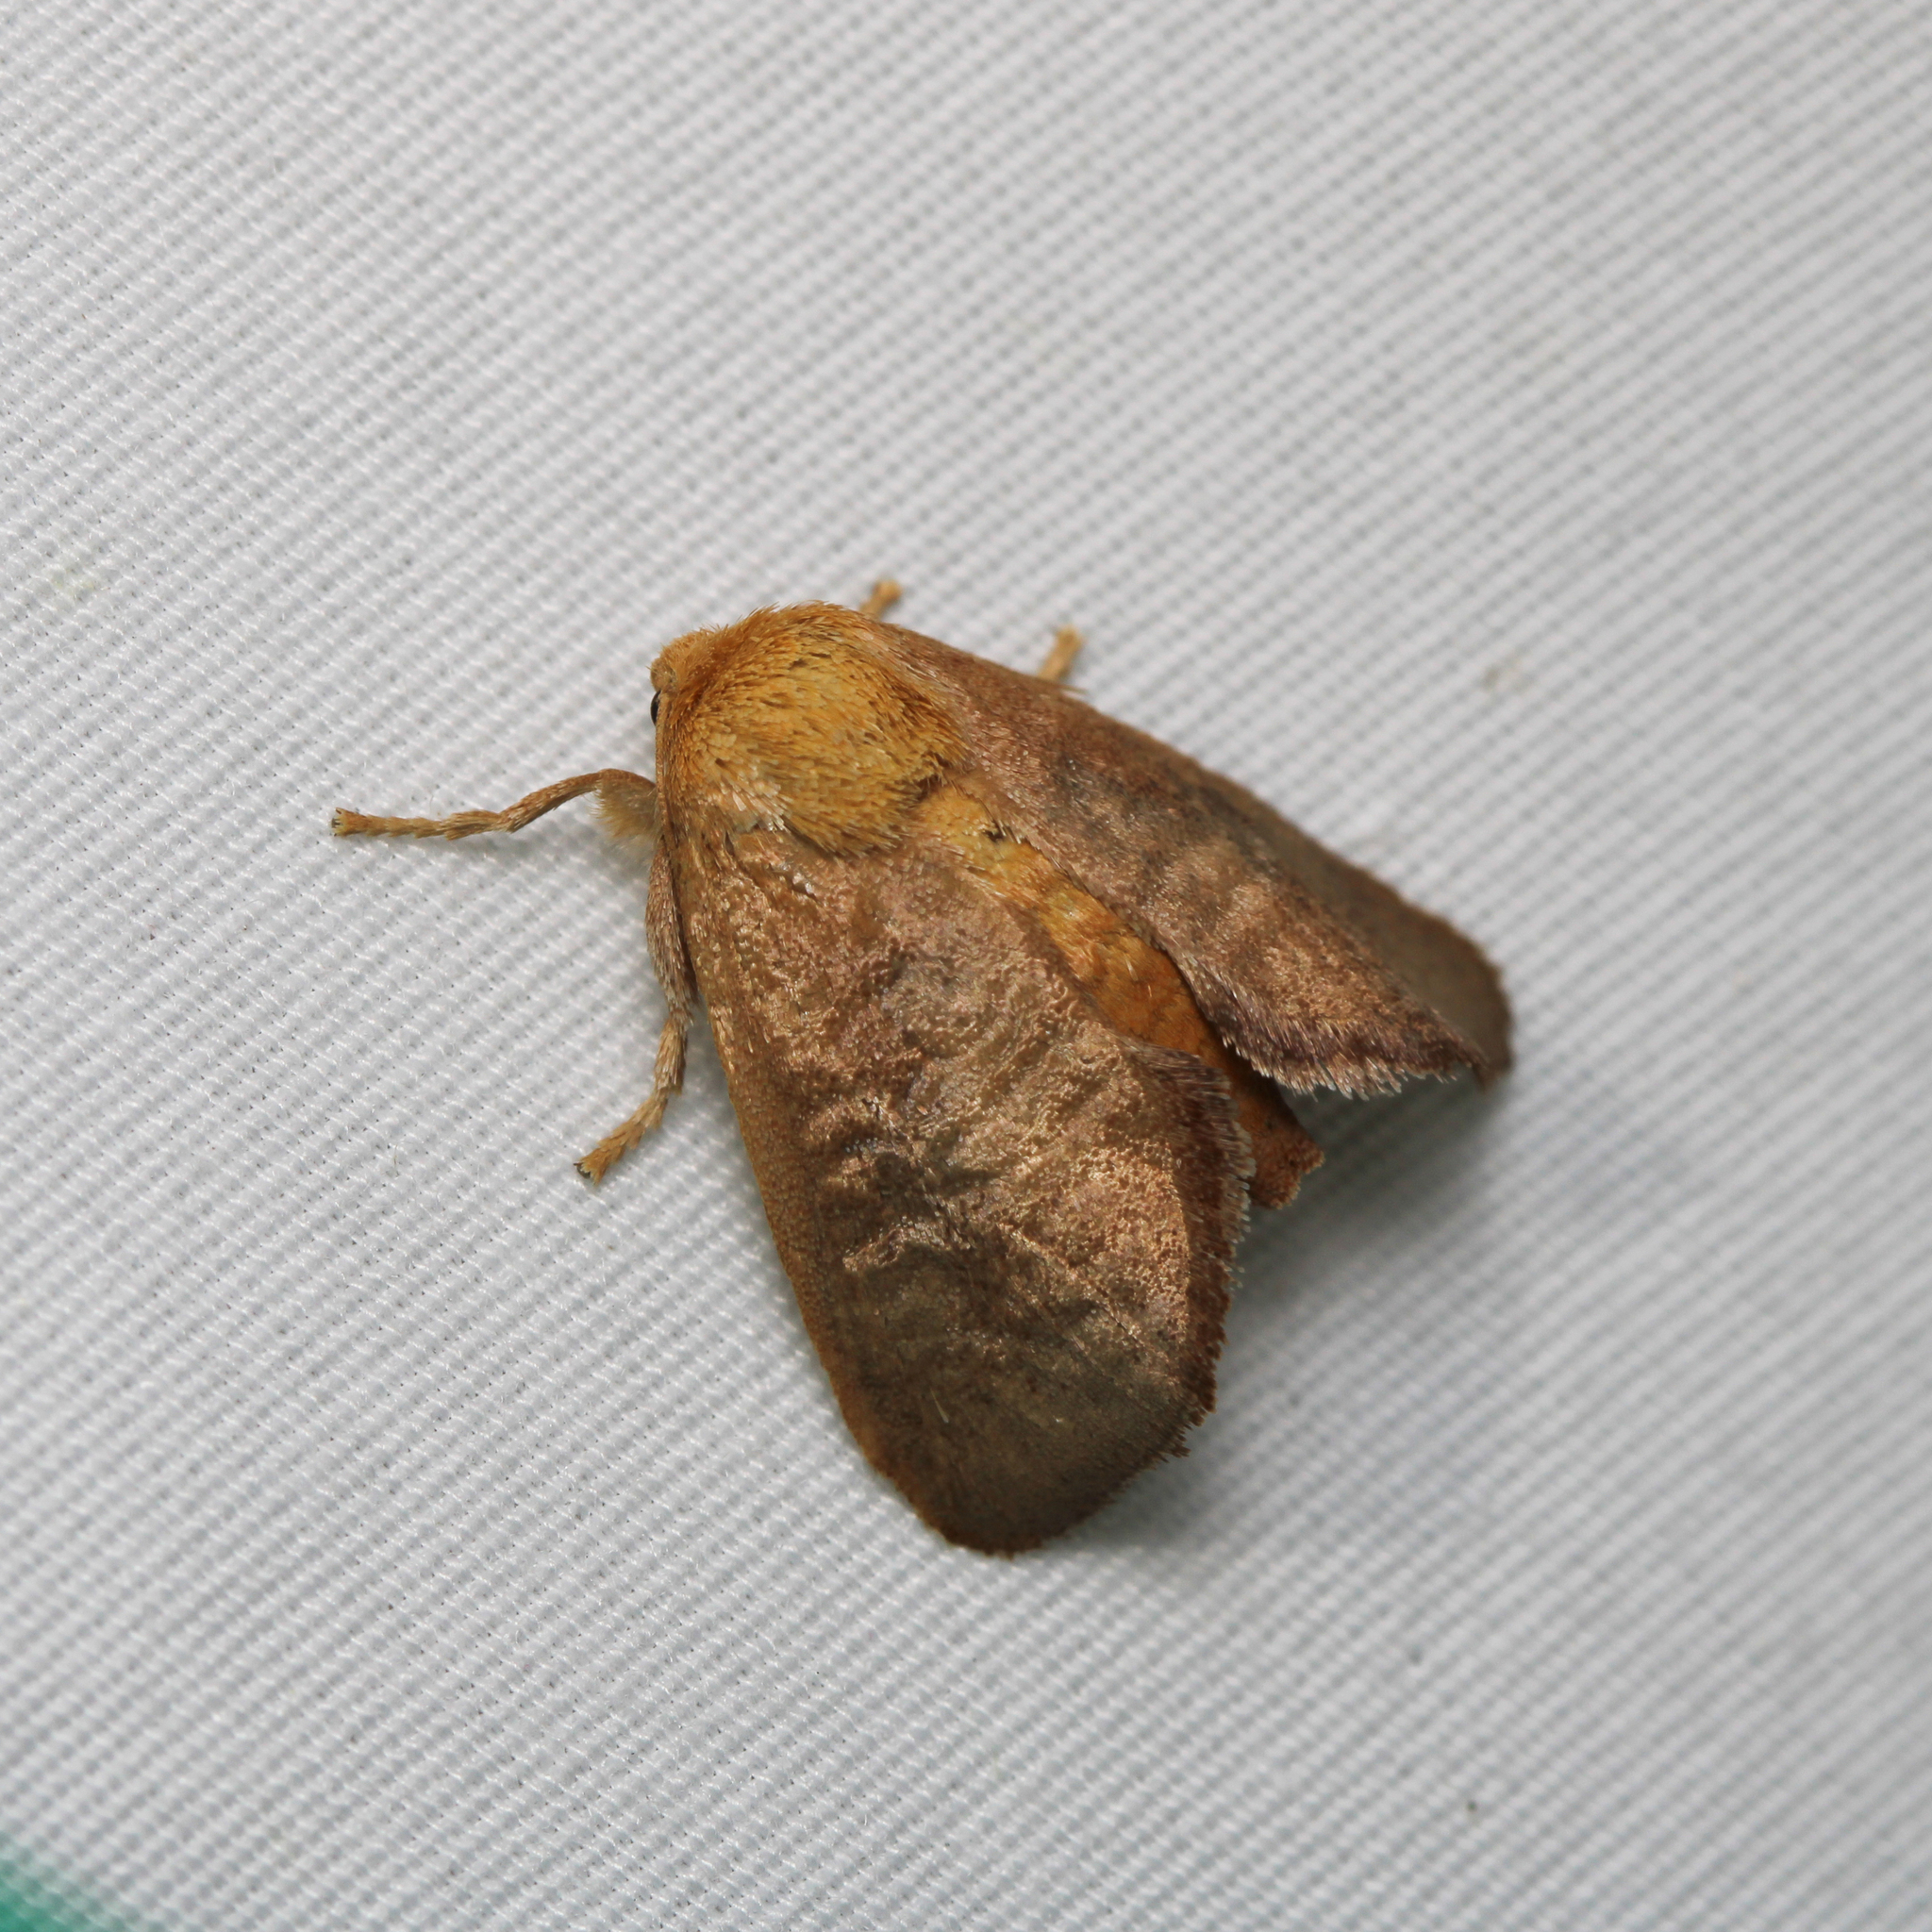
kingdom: Animalia
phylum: Arthropoda
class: Insecta
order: Lepidoptera
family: Limacodidae
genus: Isa
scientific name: Isa textula
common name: Crowned slug moth
